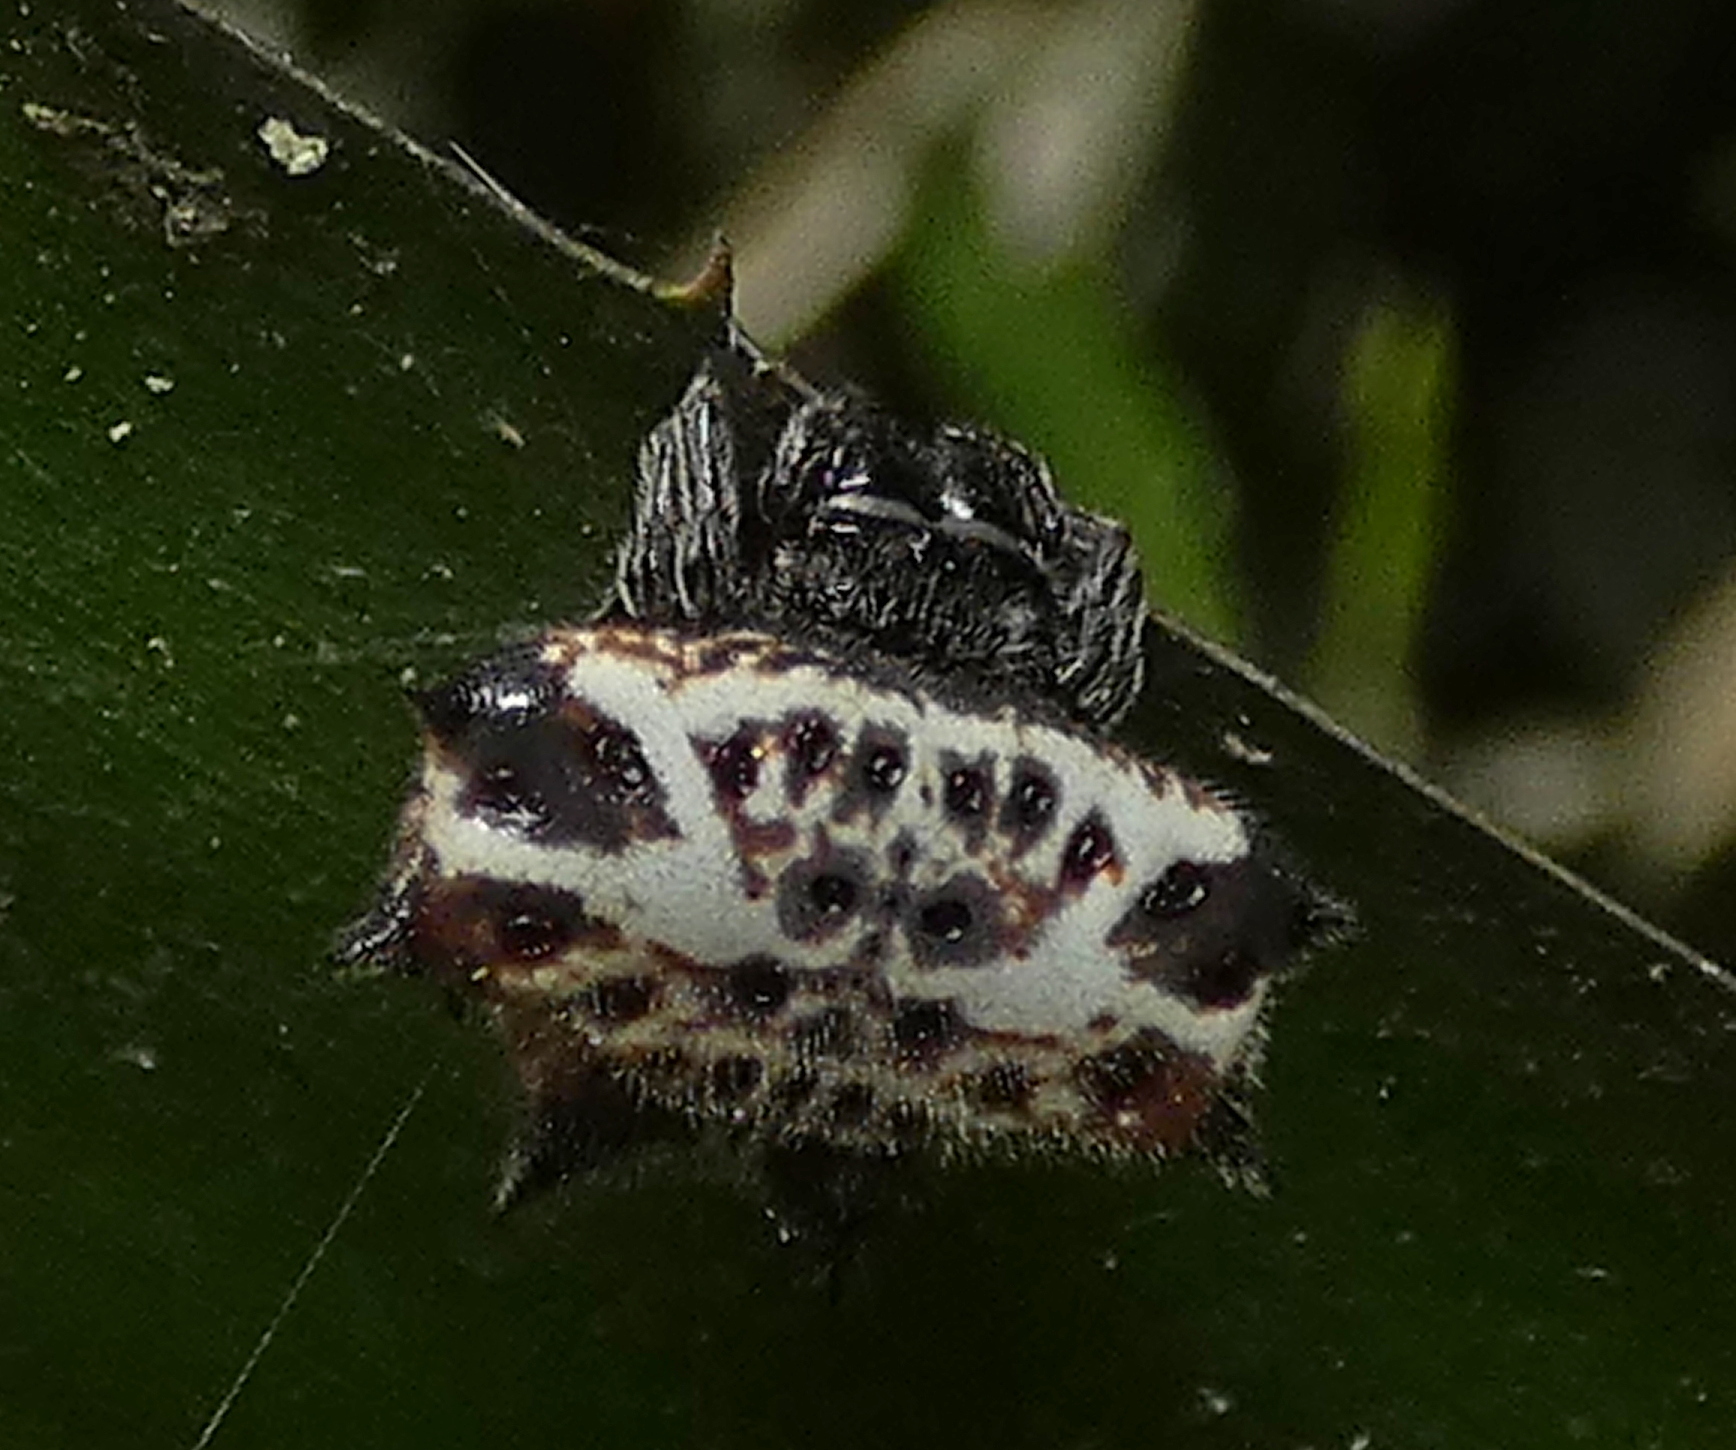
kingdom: Animalia
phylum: Arthropoda
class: Arachnida
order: Araneae
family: Araneidae
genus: Gasteracantha
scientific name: Gasteracantha cancriformis
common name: Orb weavers
